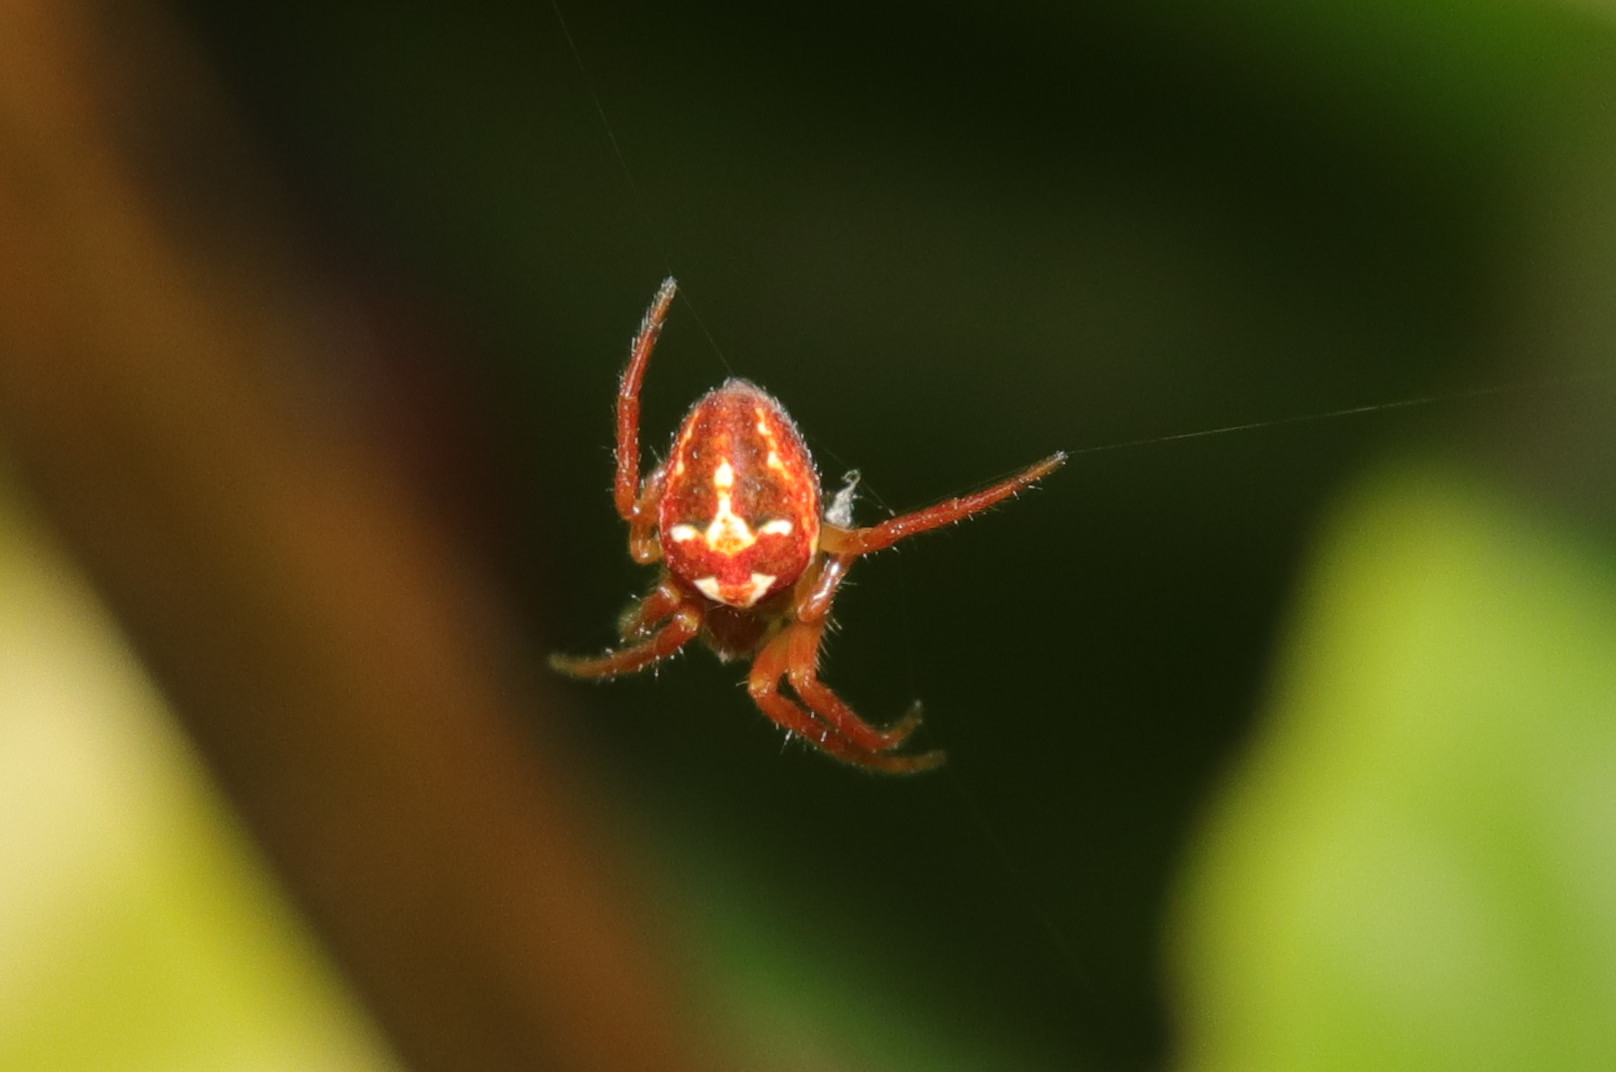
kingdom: Animalia
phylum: Arthropoda
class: Arachnida
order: Araneae
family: Araneidae
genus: Novaranea
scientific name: Novaranea queribunda
